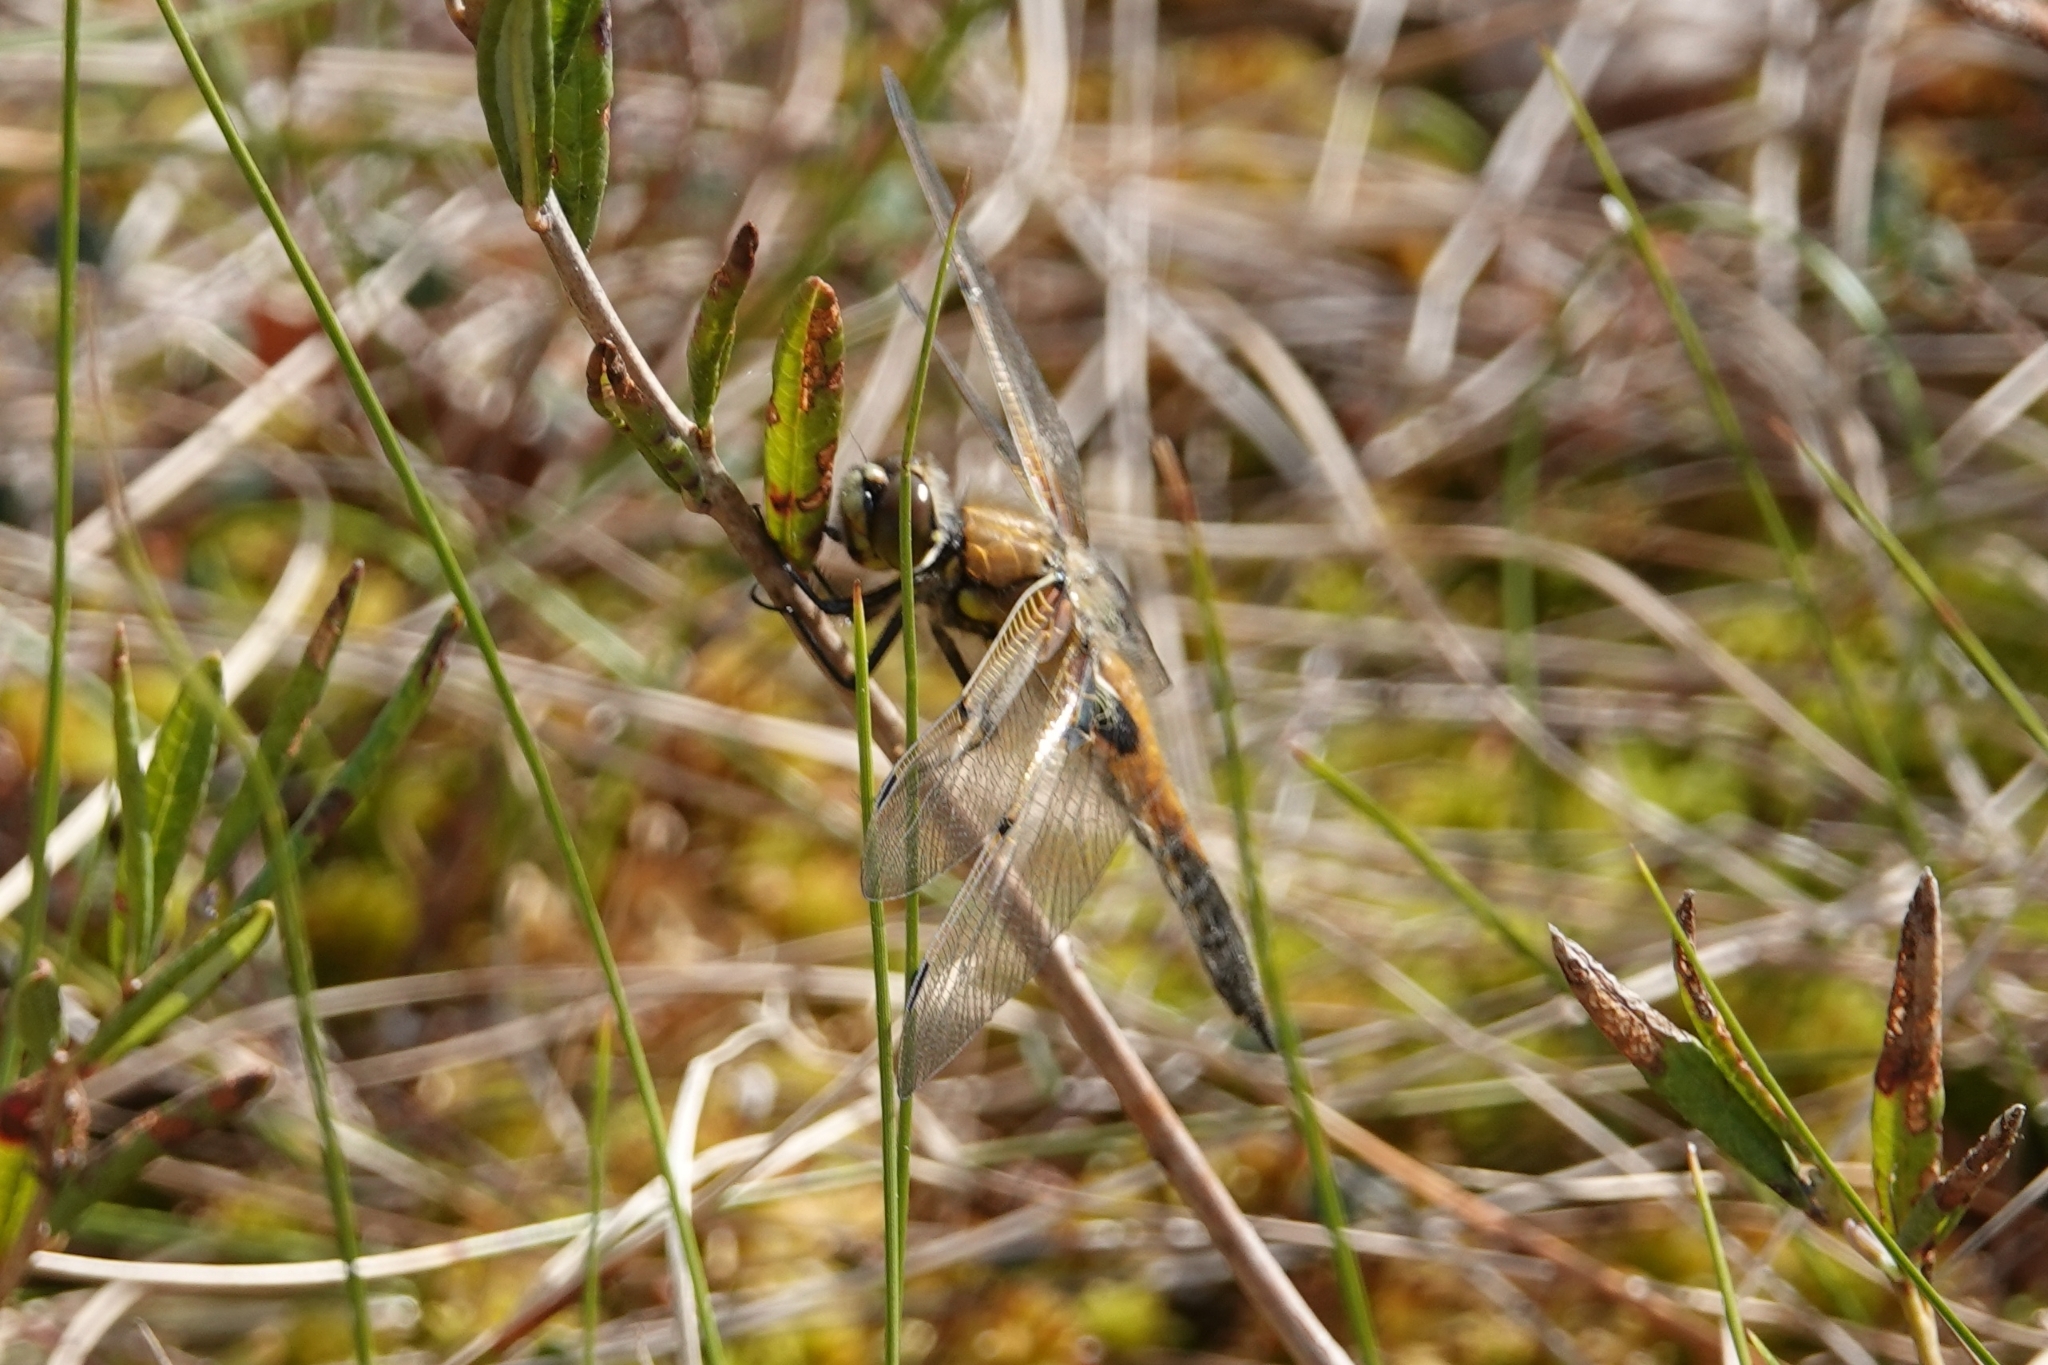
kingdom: Animalia
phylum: Arthropoda
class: Insecta
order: Odonata
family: Libellulidae
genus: Libellula
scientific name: Libellula quadrimaculata
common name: Four-spotted chaser
